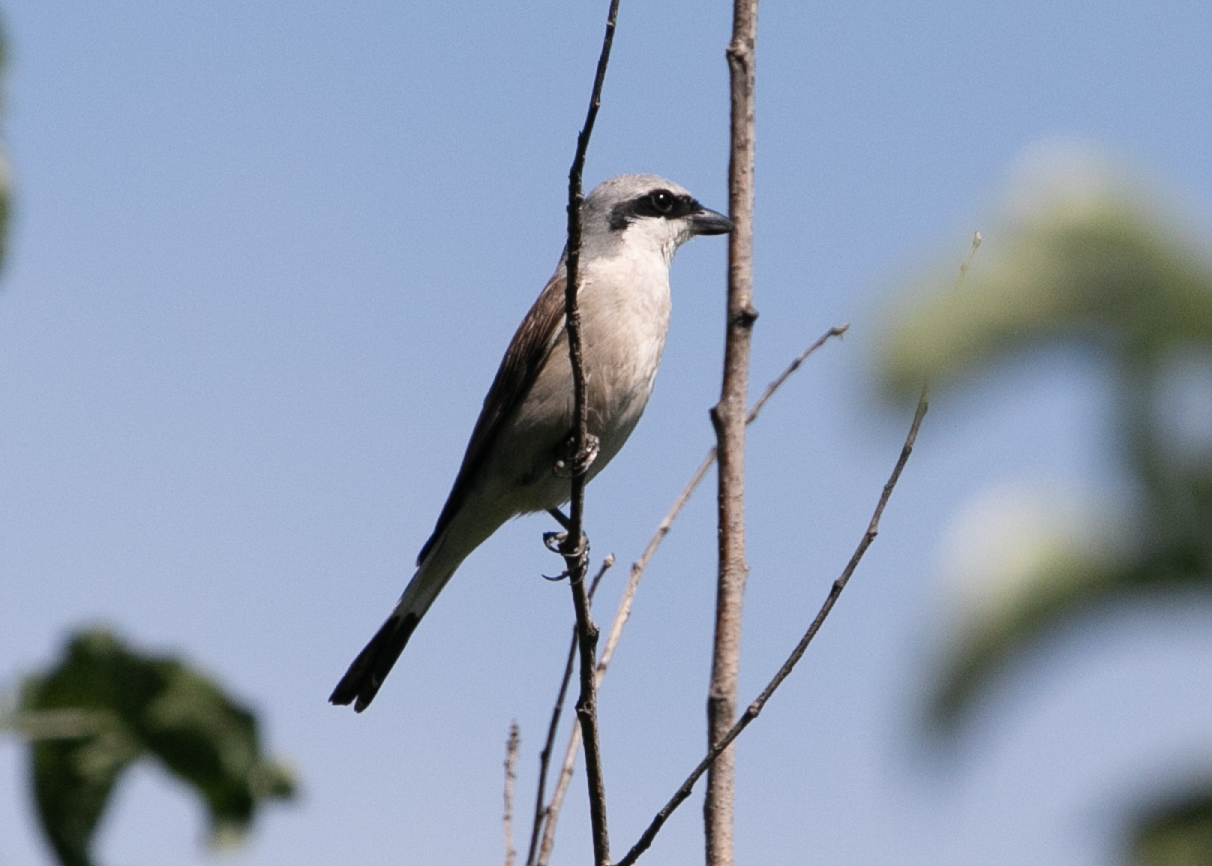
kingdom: Animalia
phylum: Chordata
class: Aves
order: Passeriformes
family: Laniidae
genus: Lanius
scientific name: Lanius collurio
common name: Red-backed shrike
